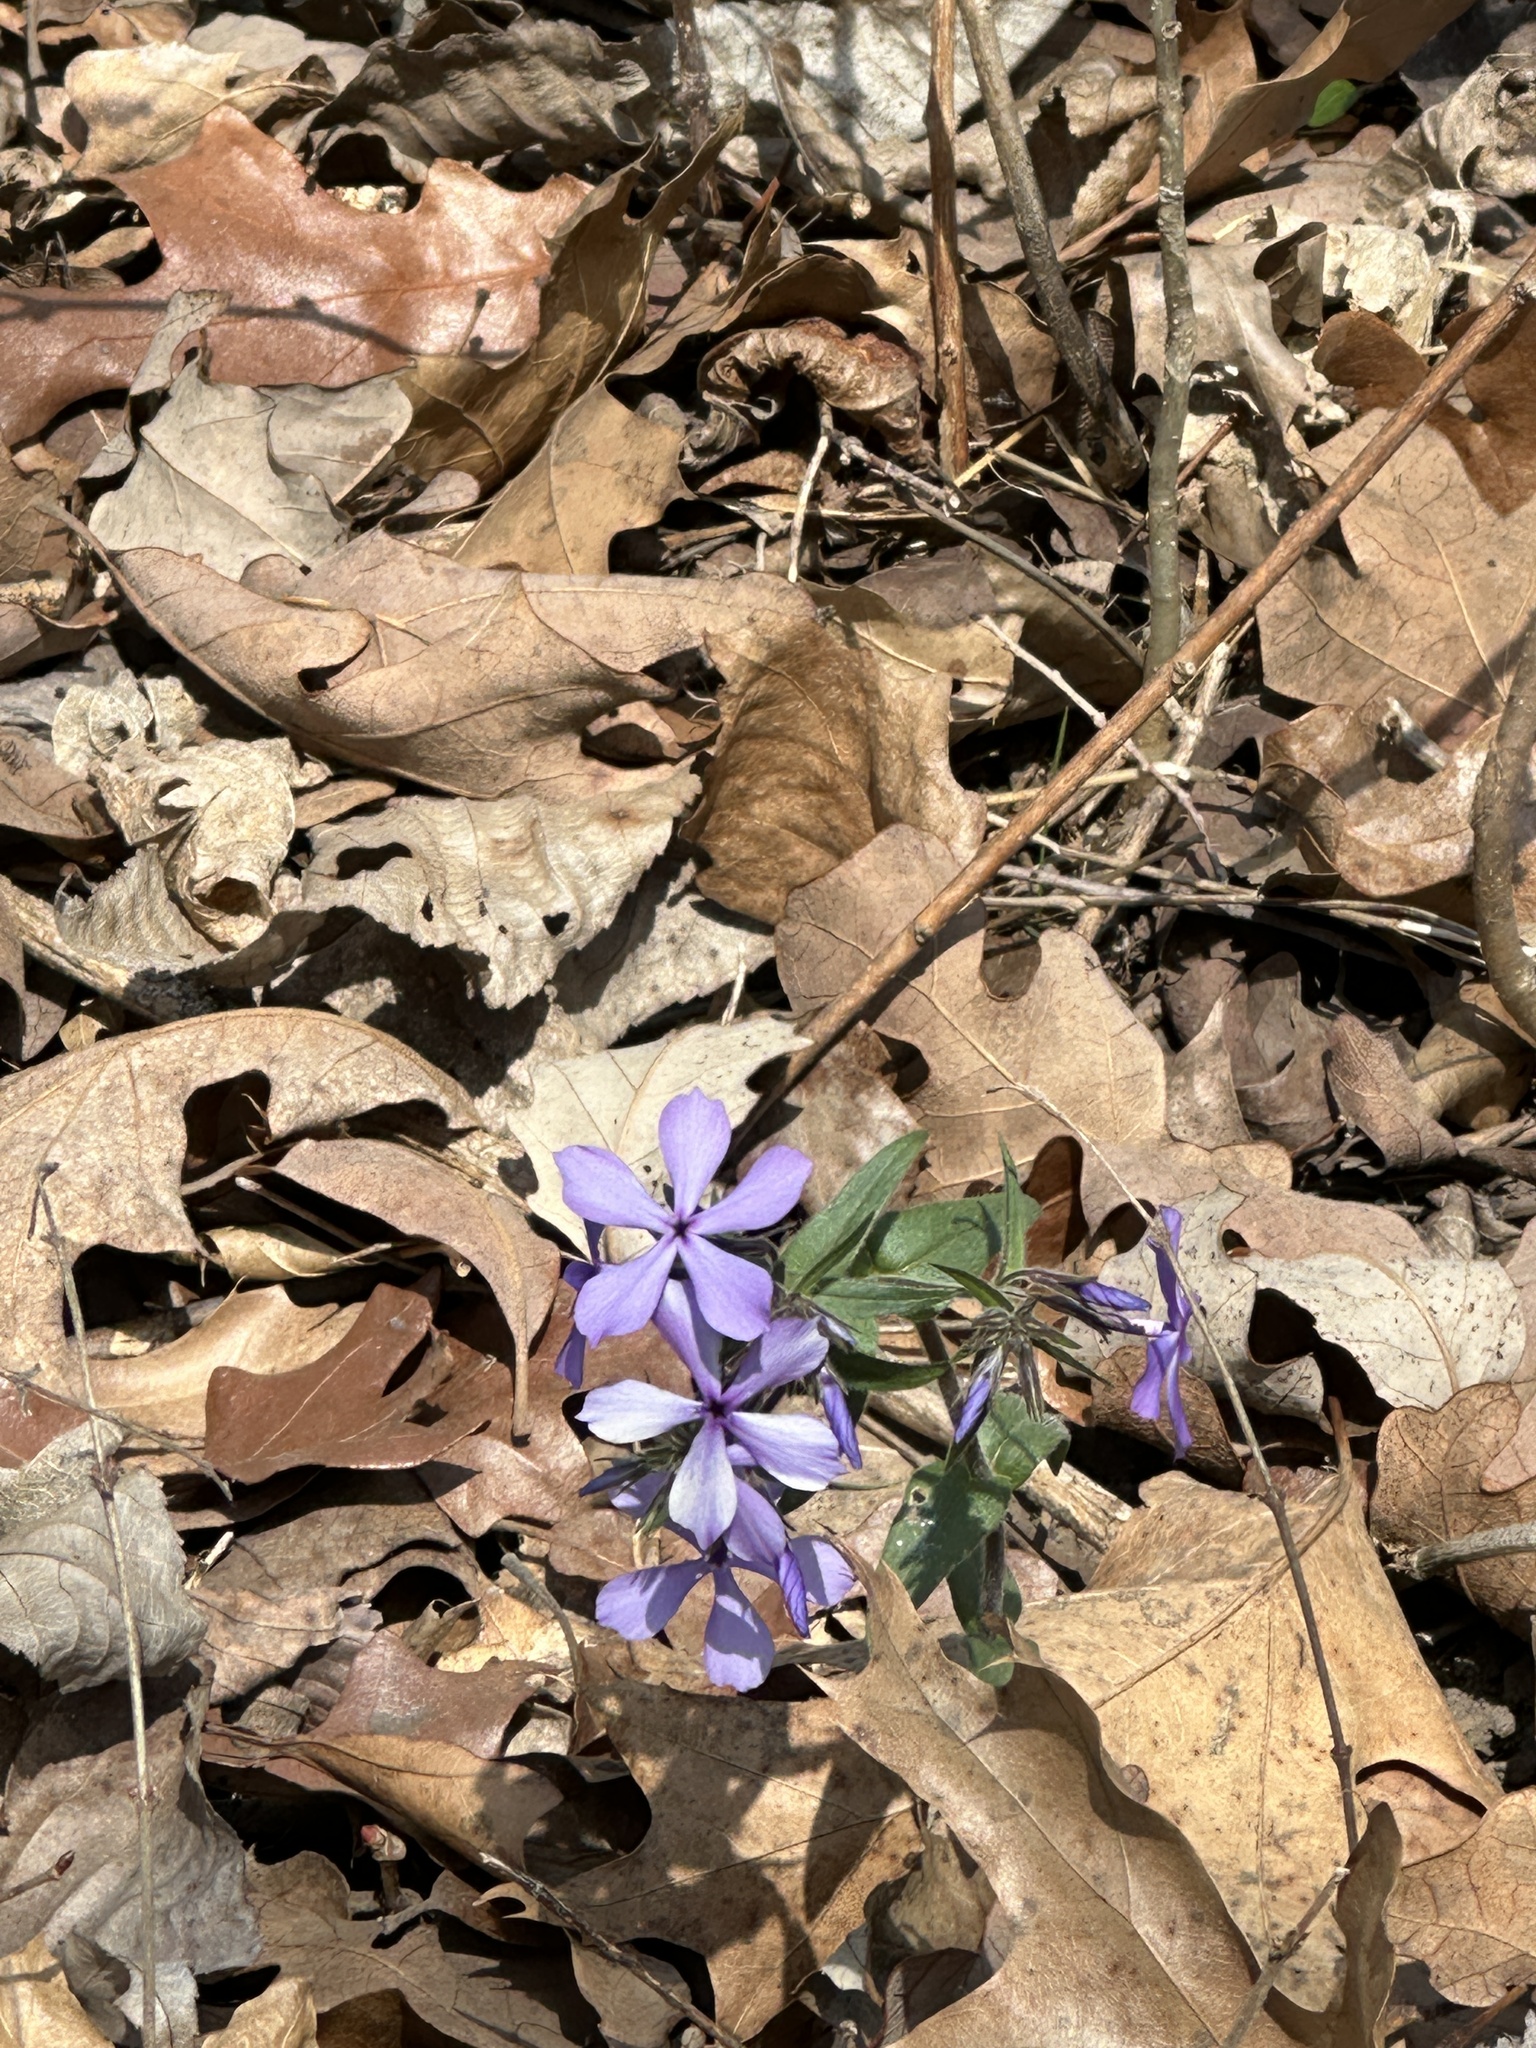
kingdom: Plantae
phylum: Tracheophyta
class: Magnoliopsida
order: Ericales
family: Polemoniaceae
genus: Phlox
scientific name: Phlox divaricata
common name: Blue phlox
